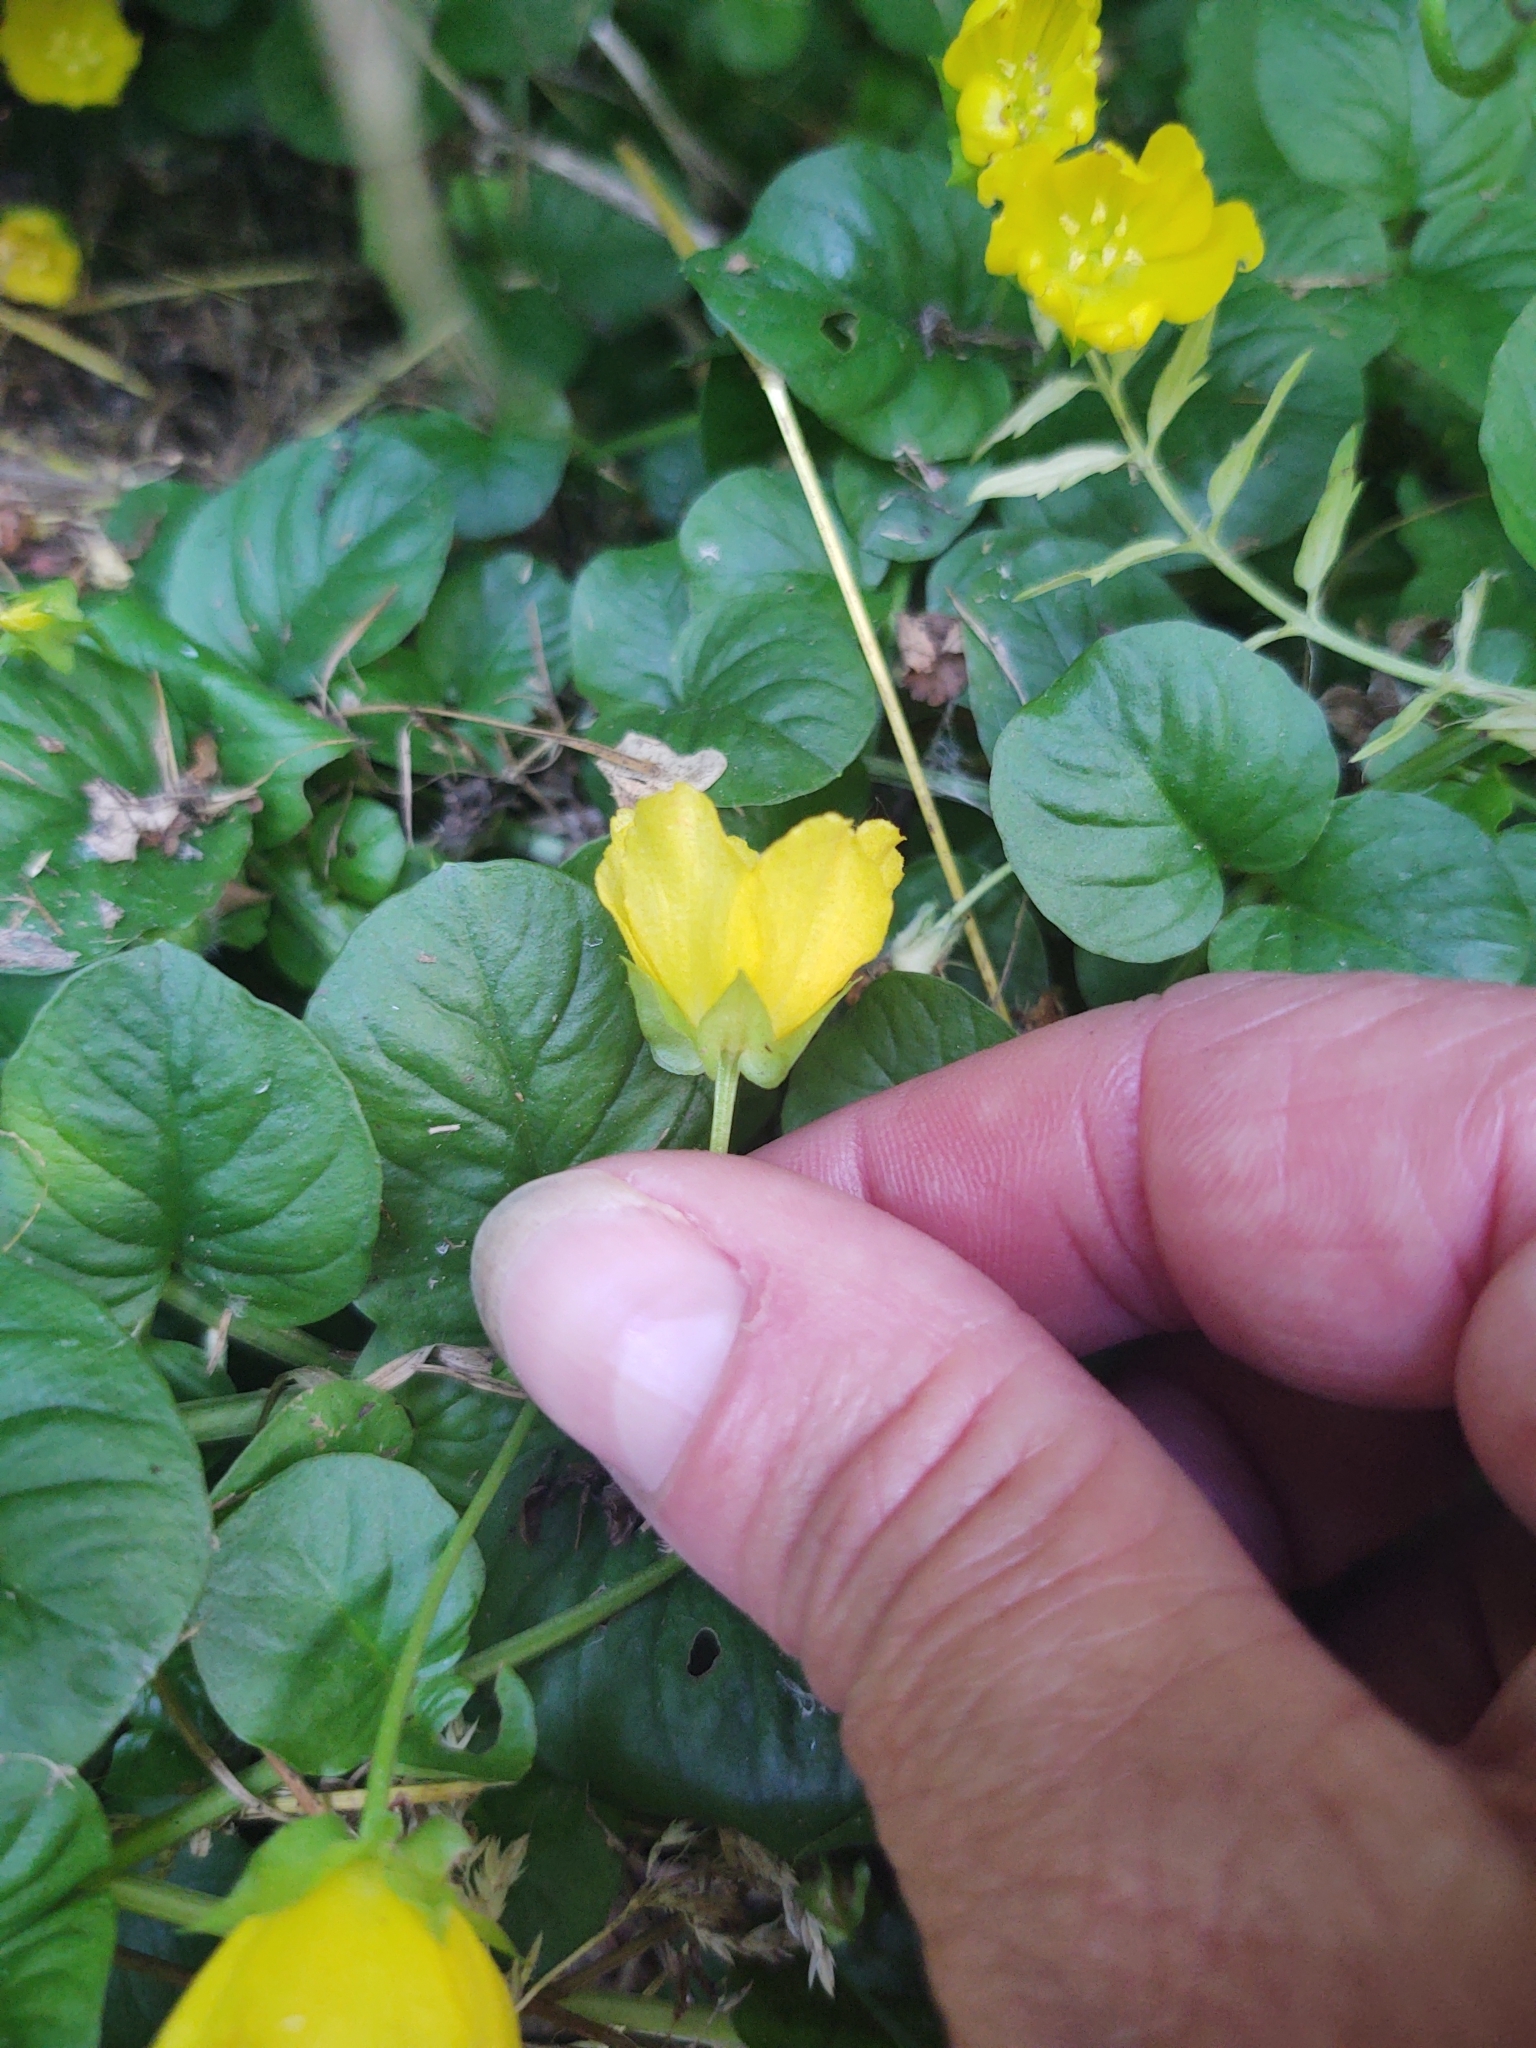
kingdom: Plantae
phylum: Tracheophyta
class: Magnoliopsida
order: Ericales
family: Primulaceae
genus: Lysimachia
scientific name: Lysimachia nummularia
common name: Moneywort
